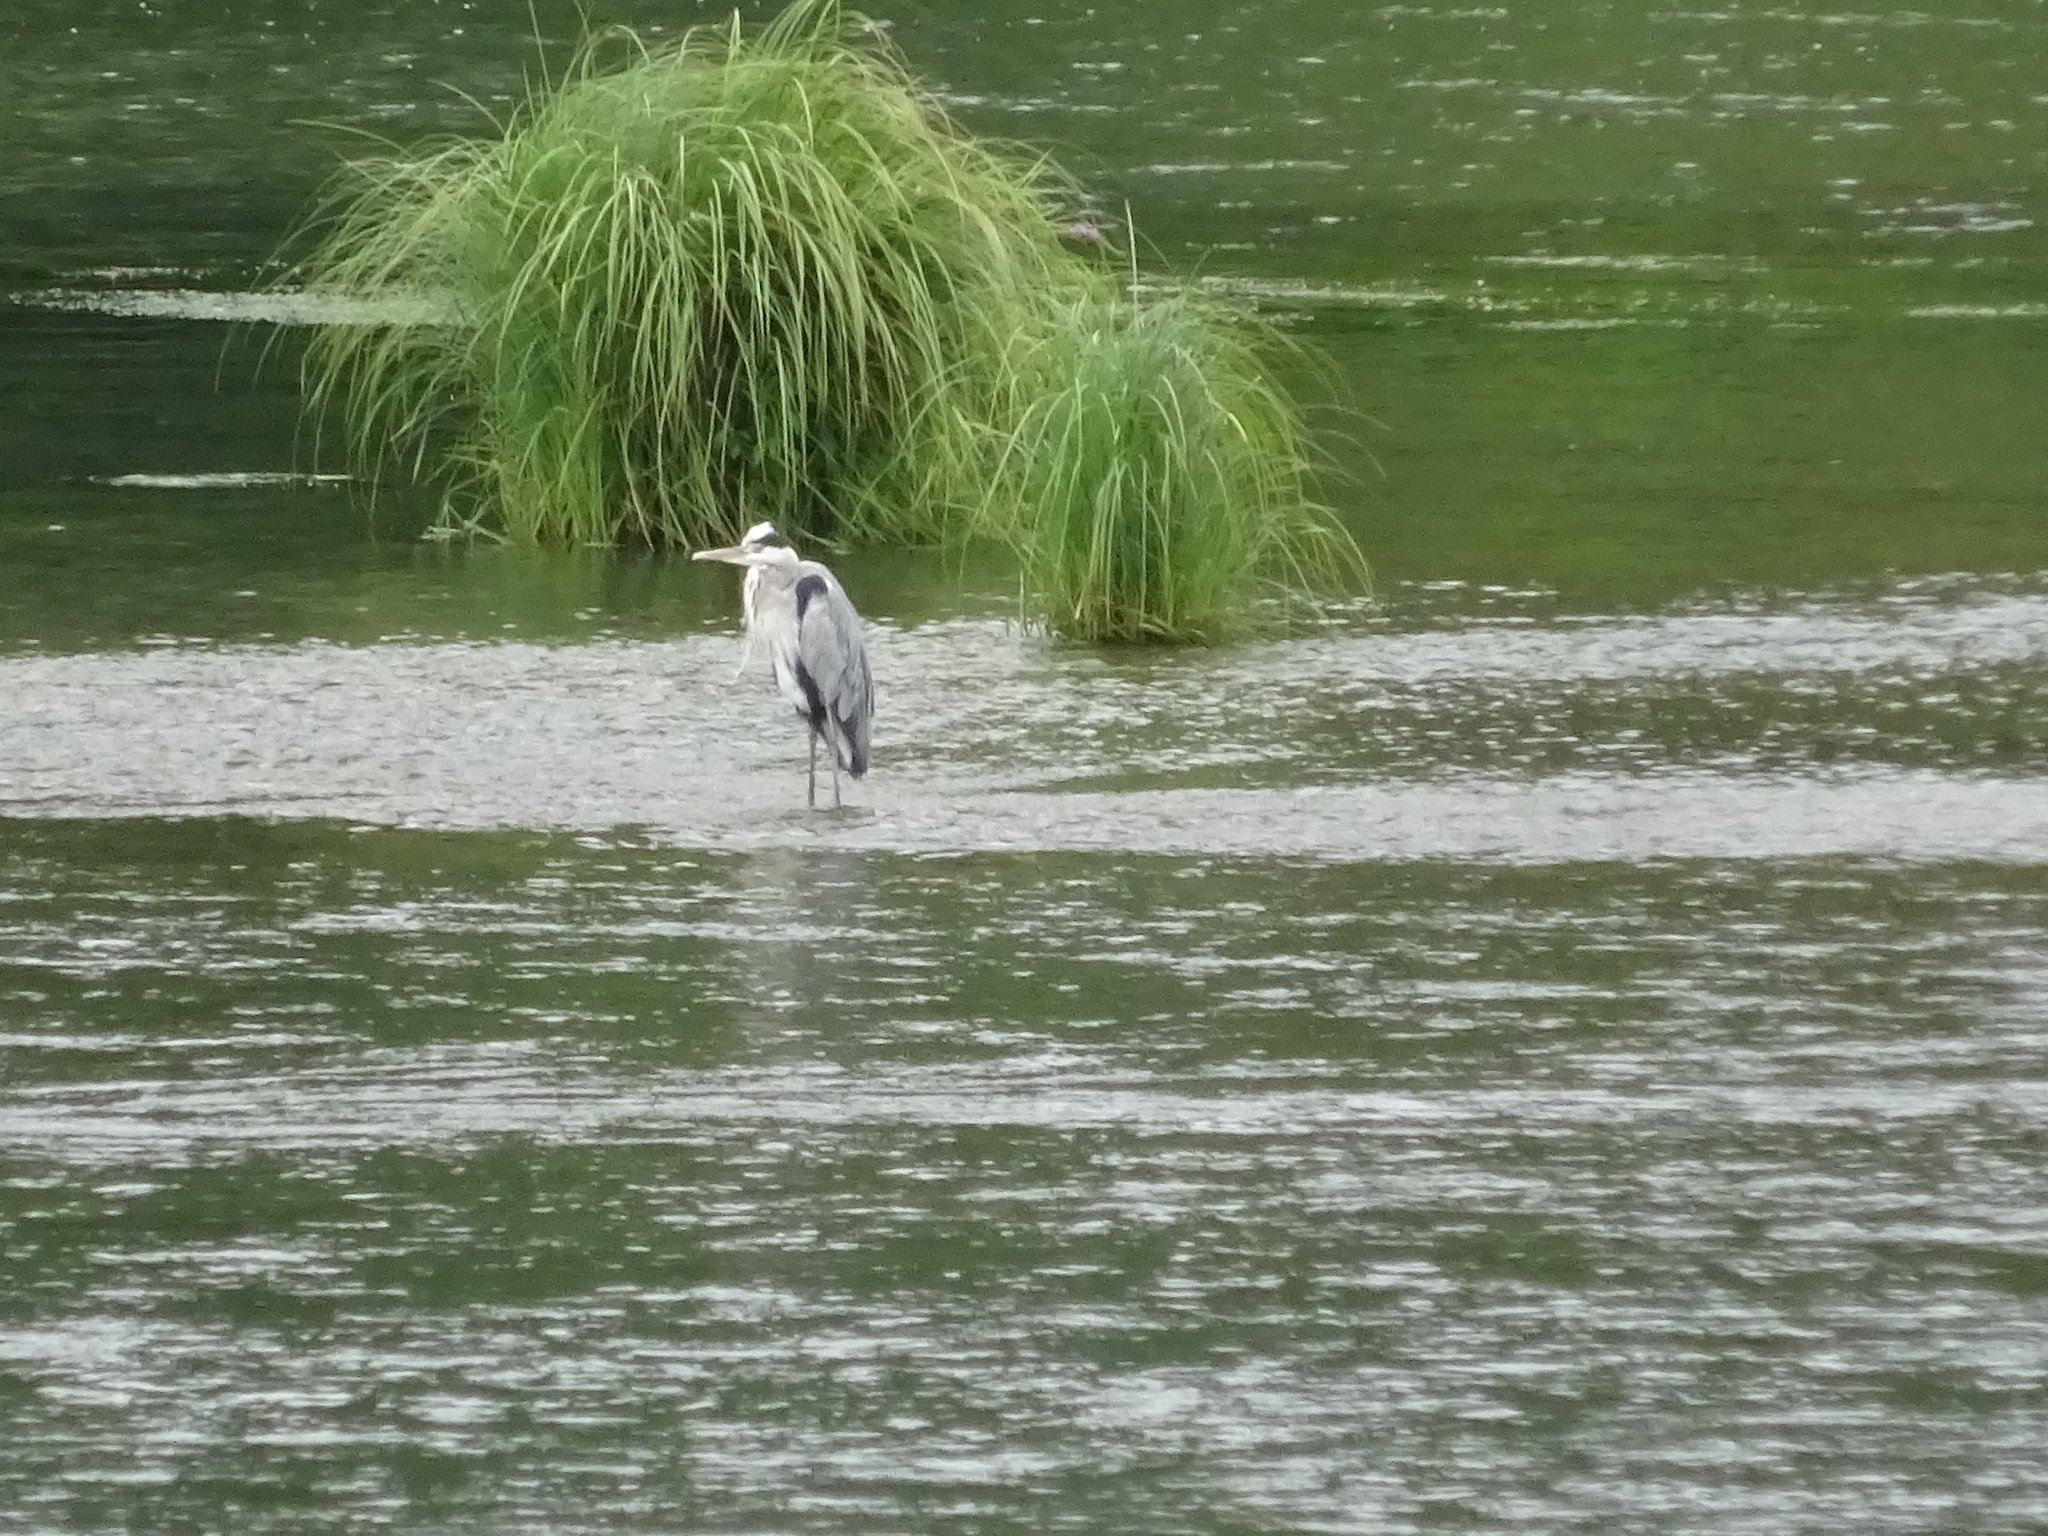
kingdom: Animalia
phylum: Chordata
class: Aves
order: Pelecaniformes
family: Ardeidae
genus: Ardea
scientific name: Ardea cinerea
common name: Grey heron
